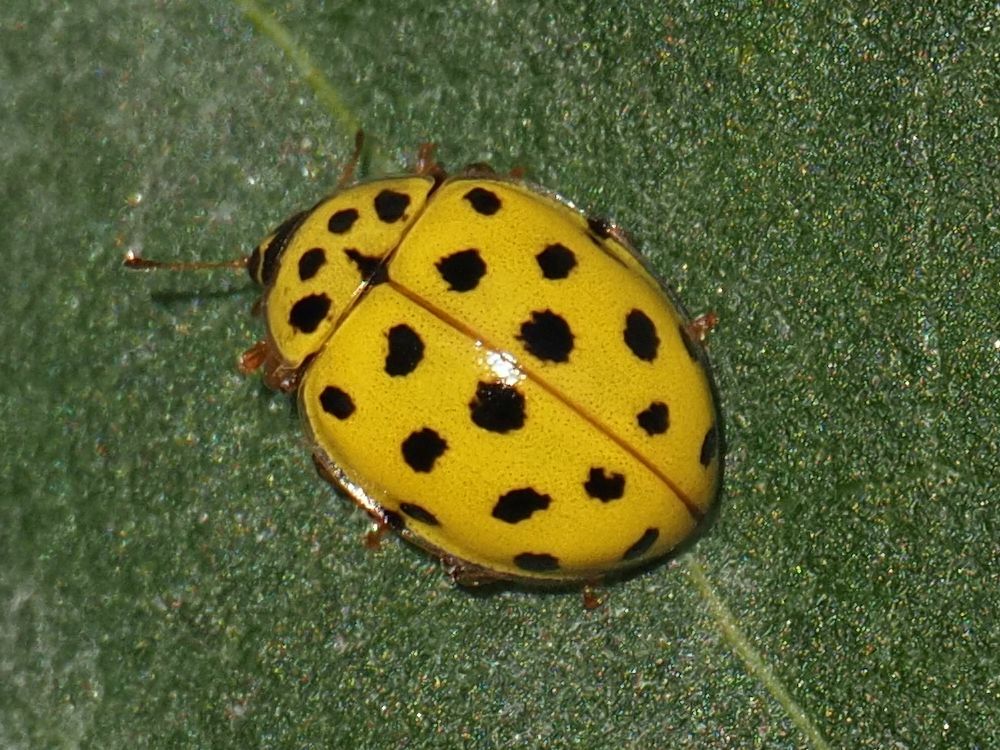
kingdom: Animalia
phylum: Arthropoda
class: Insecta
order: Coleoptera
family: Coccinellidae
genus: Psyllobora
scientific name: Psyllobora vigintiduopunctata
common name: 22-spot ladybird
